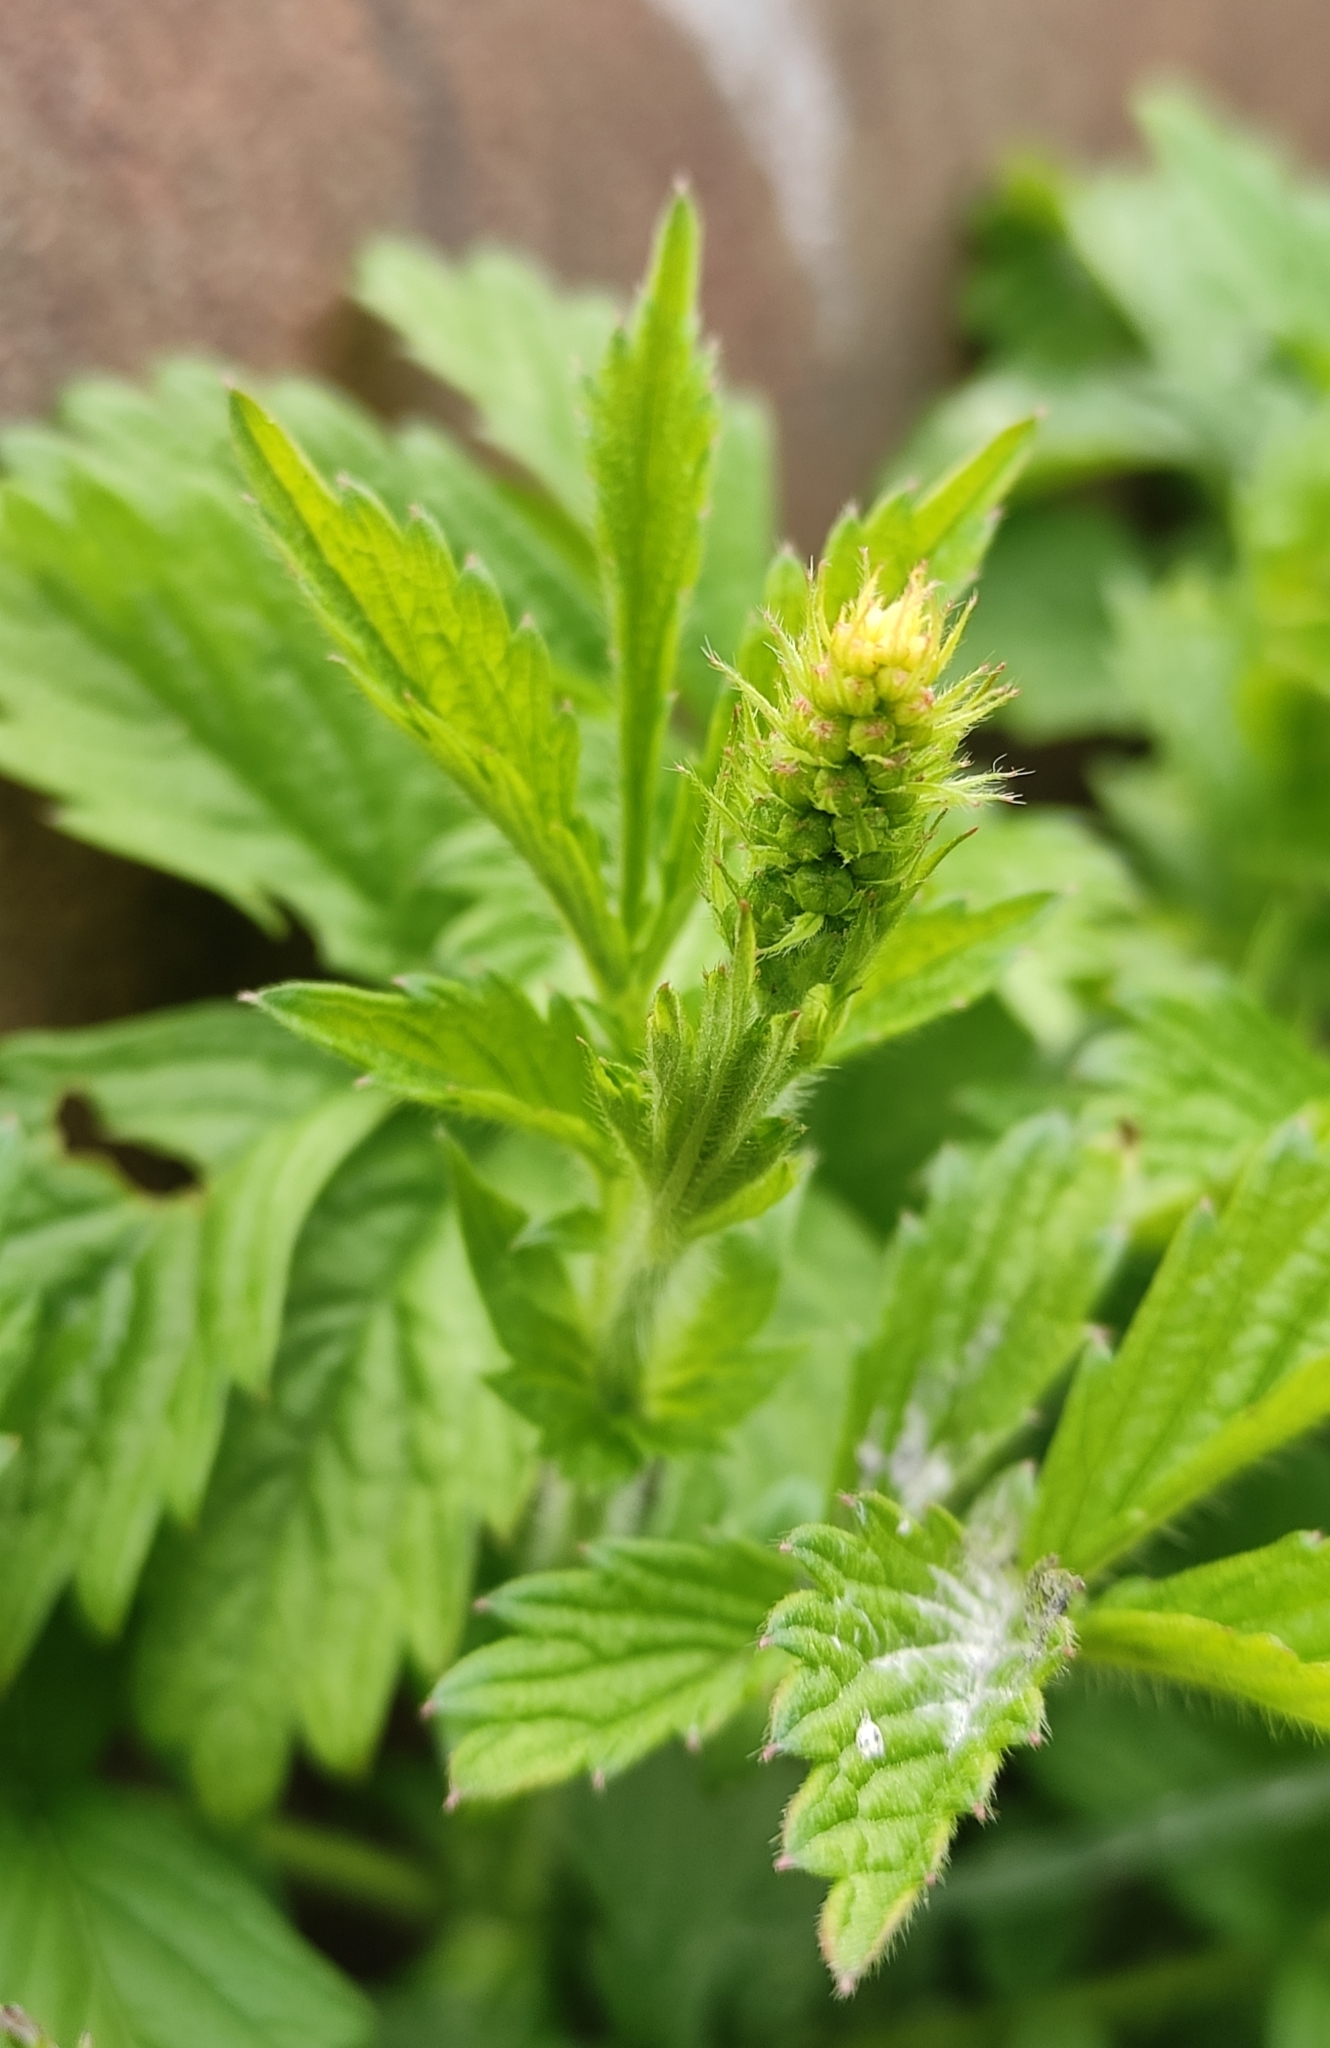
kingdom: Plantae
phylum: Tracheophyta
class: Magnoliopsida
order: Rosales
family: Rosaceae
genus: Agrimonia
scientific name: Agrimonia pilosa
